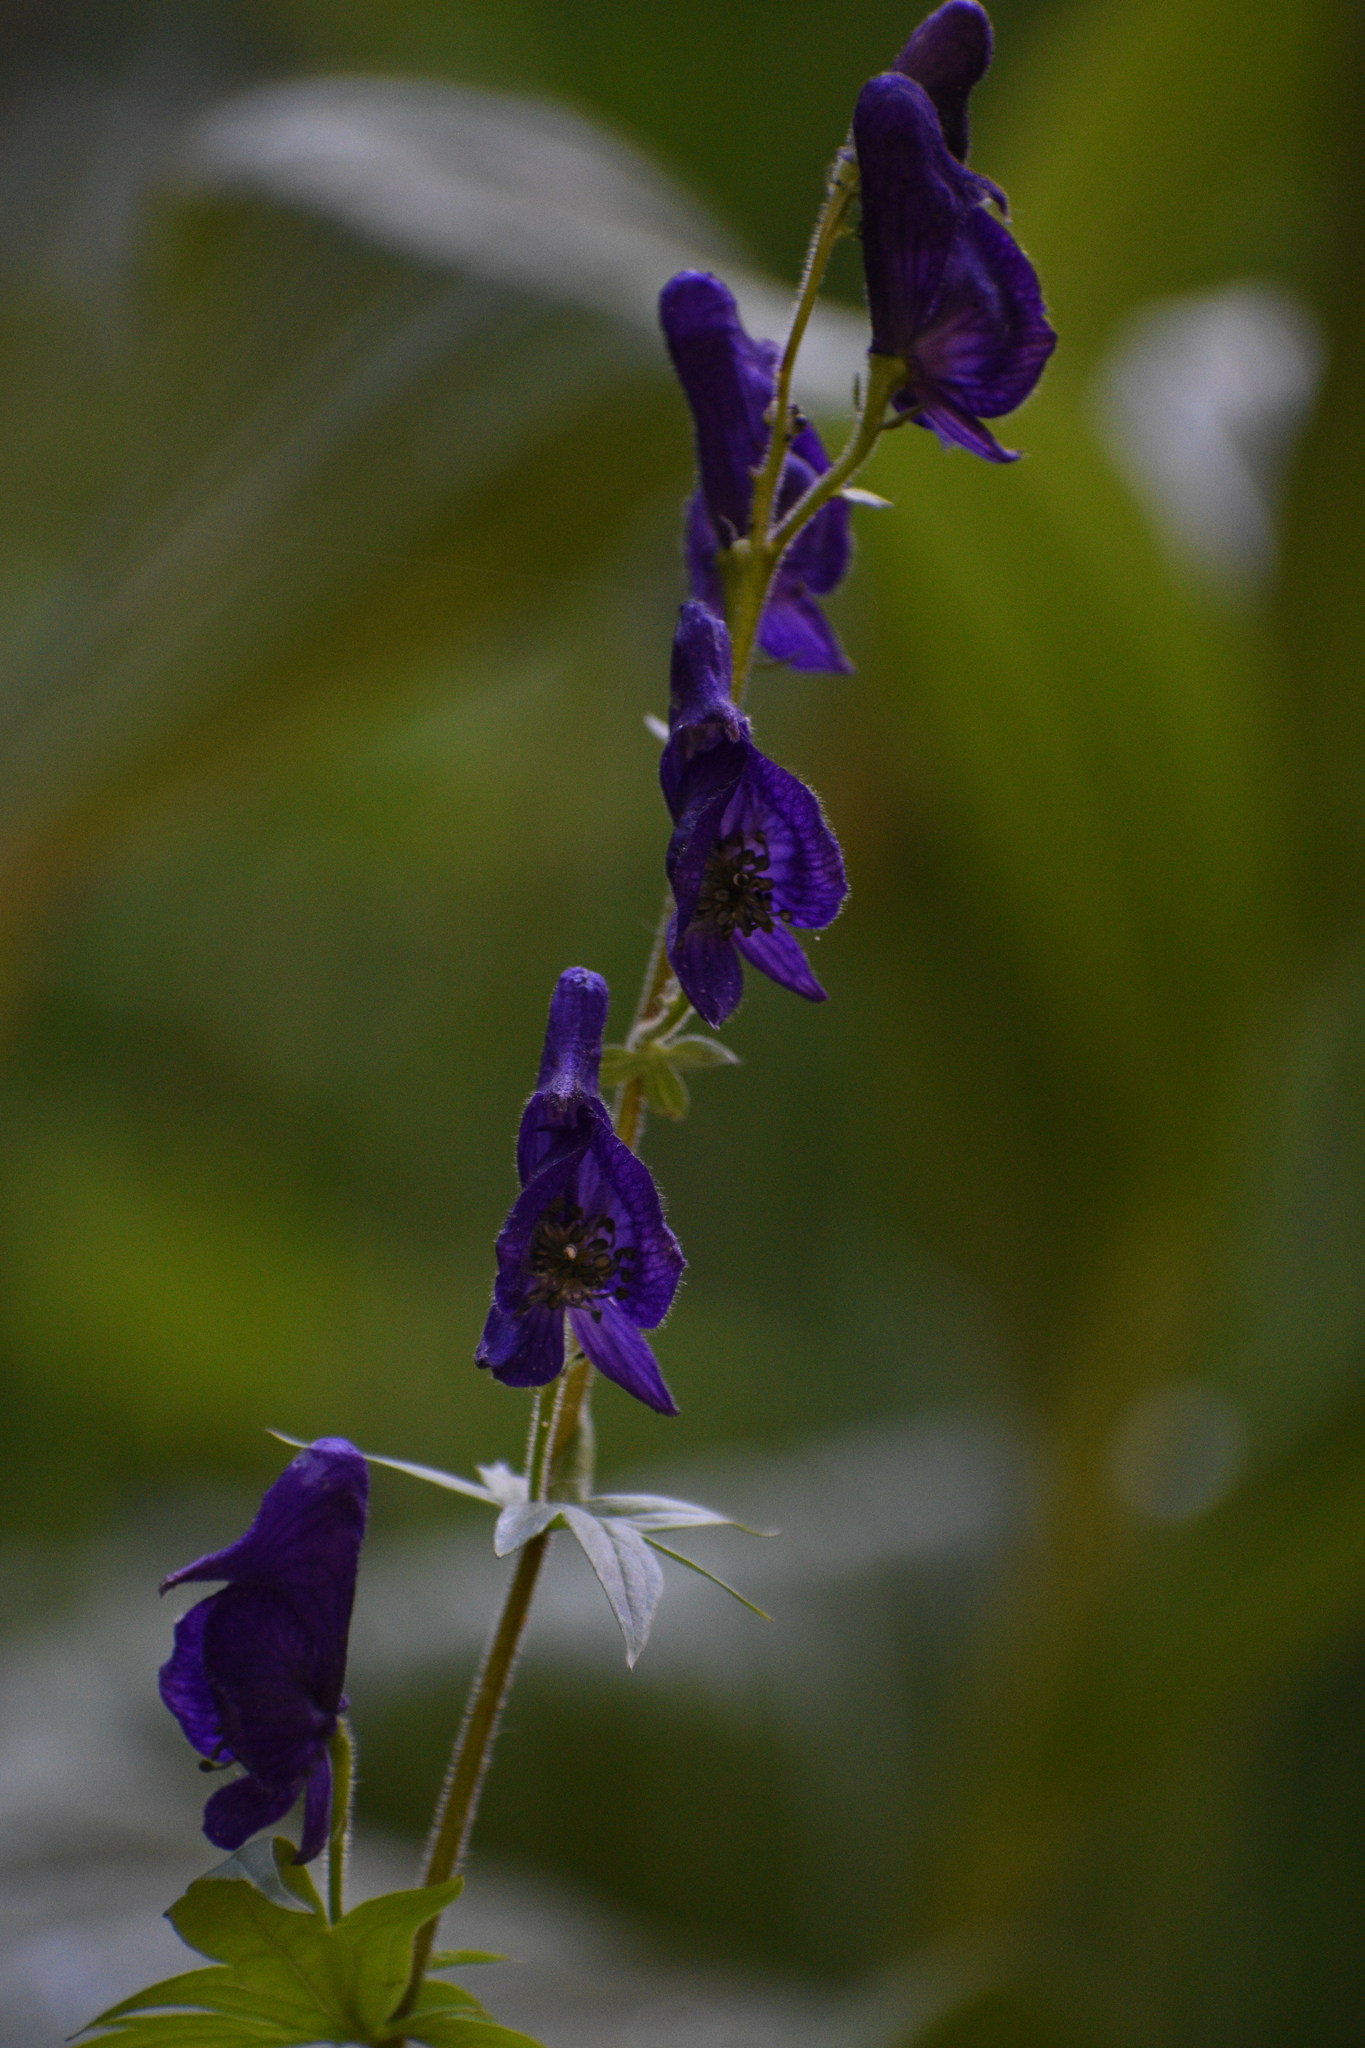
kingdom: Plantae
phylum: Tracheophyta
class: Magnoliopsida
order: Ranunculales
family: Ranunculaceae
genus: Aconitum
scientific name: Aconitum columbianum
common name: Columbia aconite
